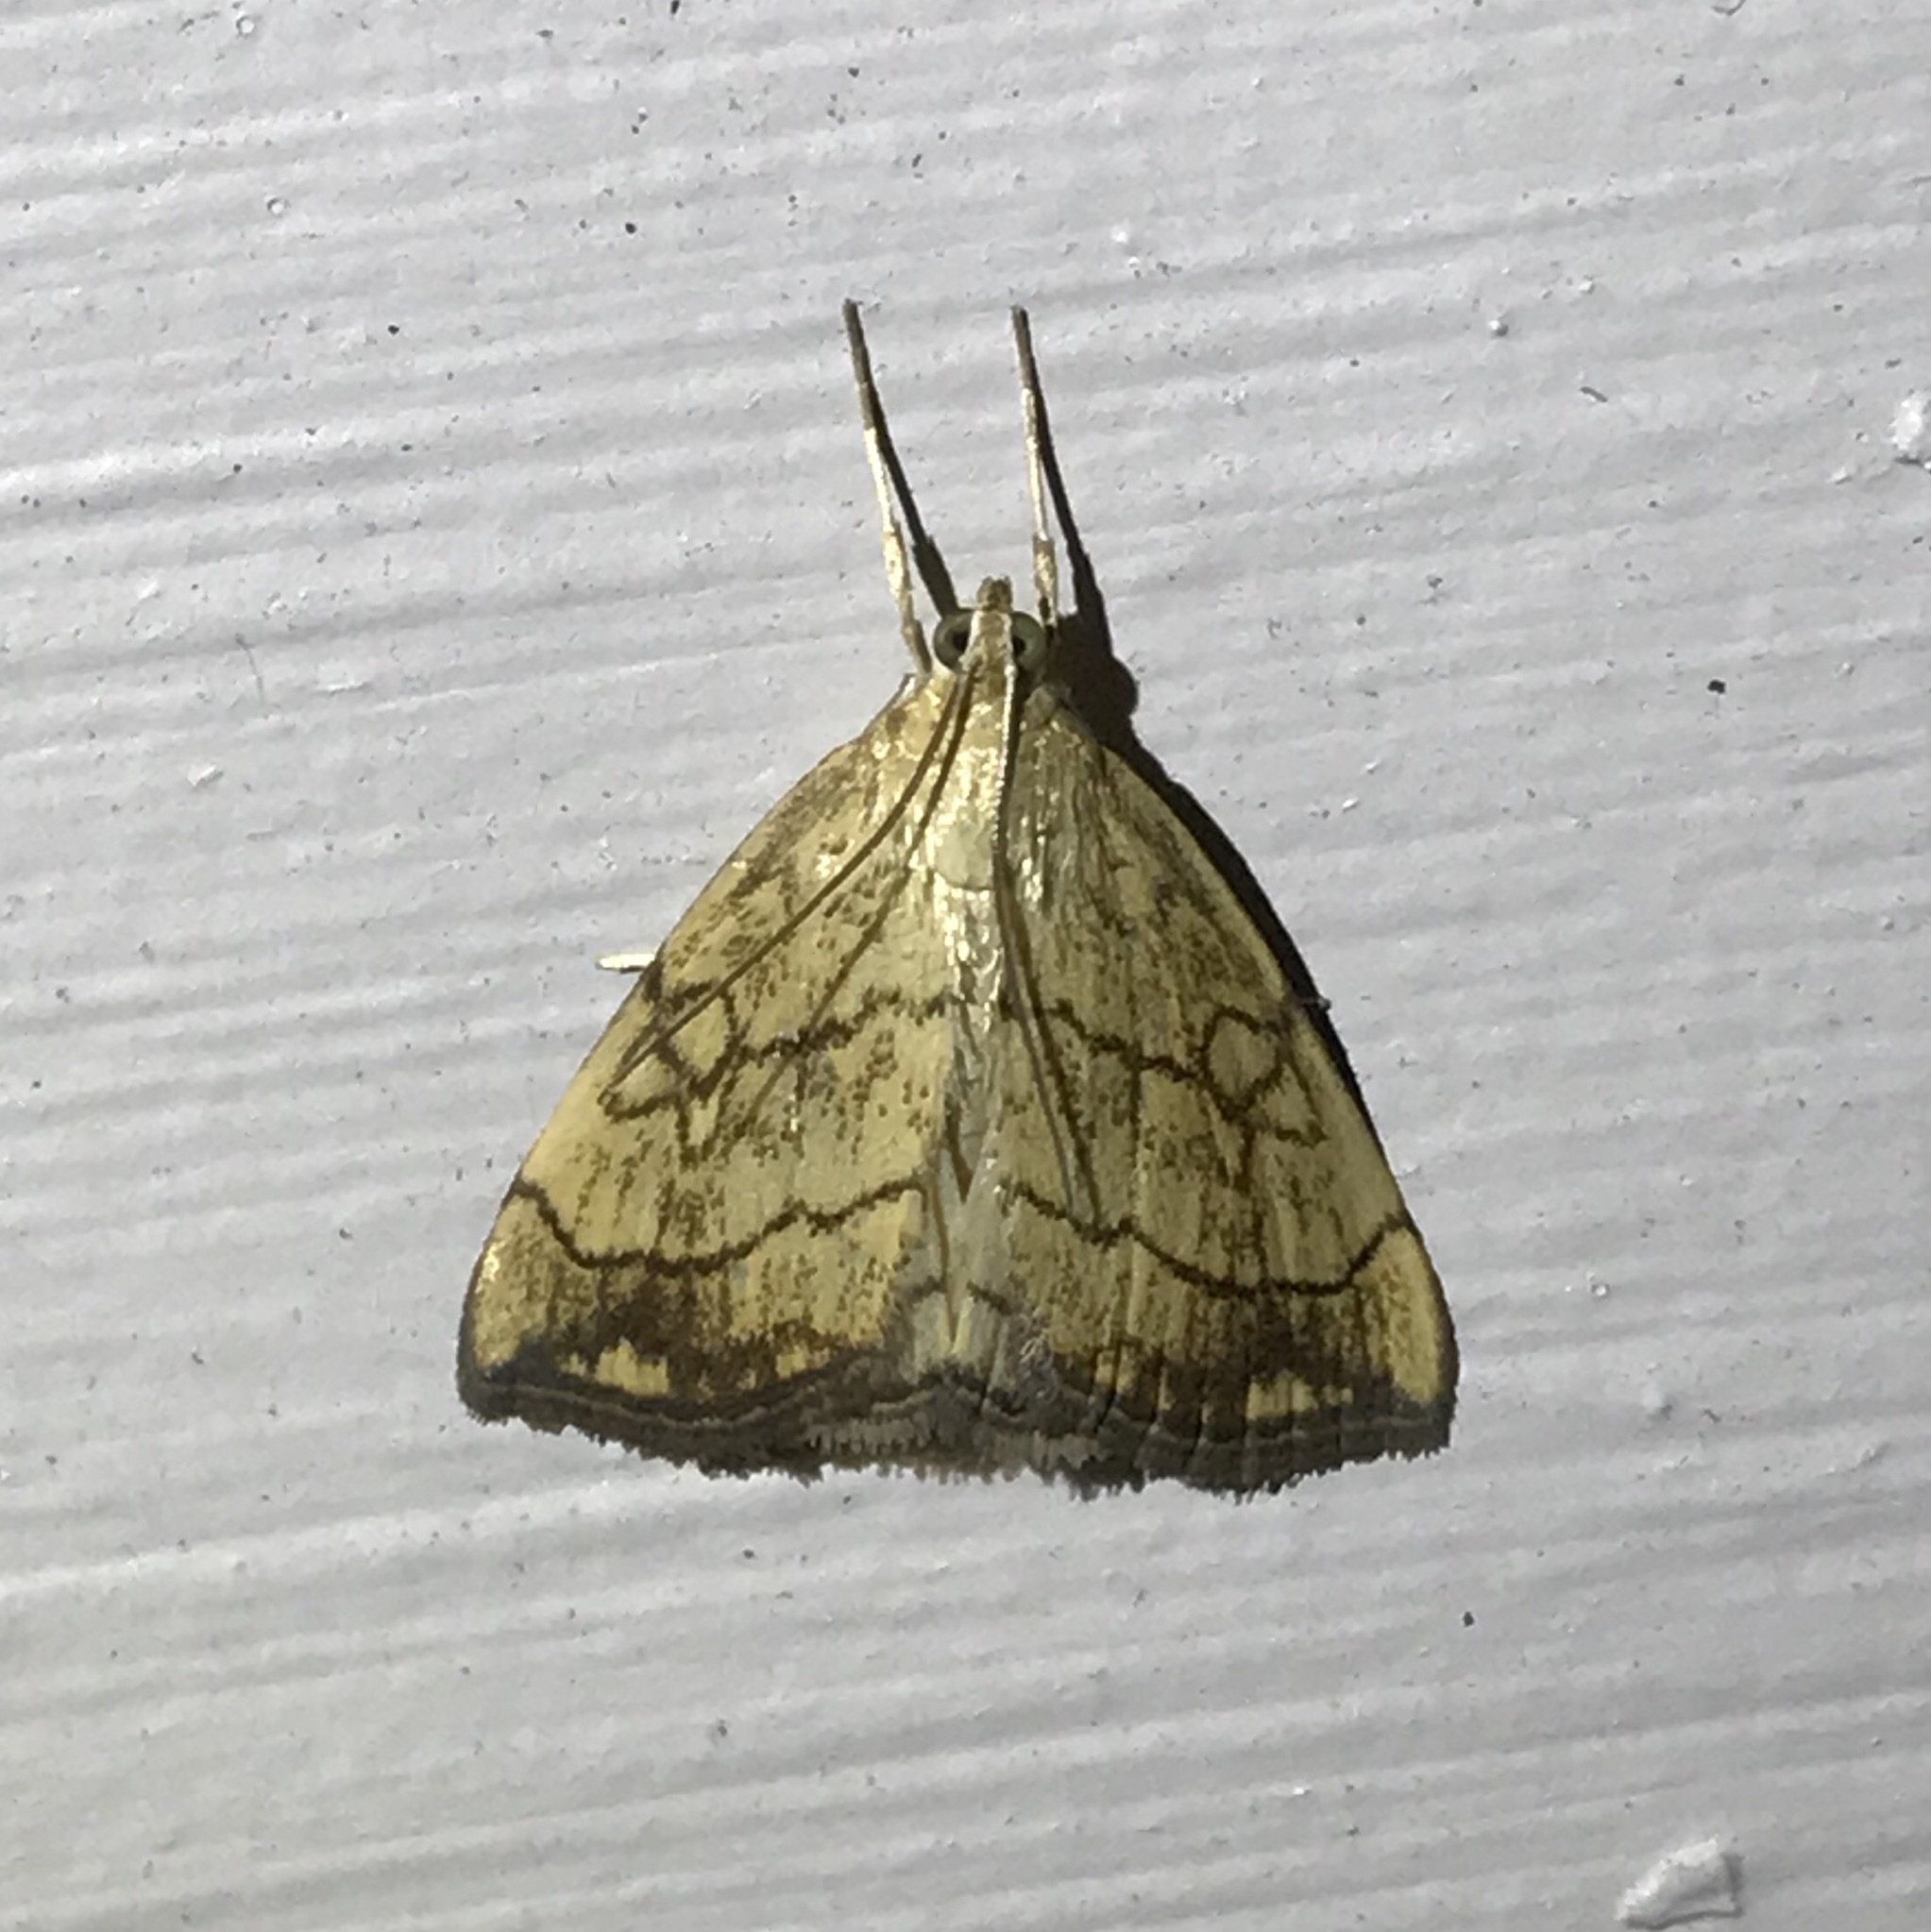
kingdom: Animalia
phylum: Arthropoda
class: Insecta
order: Lepidoptera
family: Crambidae
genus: Evergestis
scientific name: Evergestis pallidata
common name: Chequered pearl
